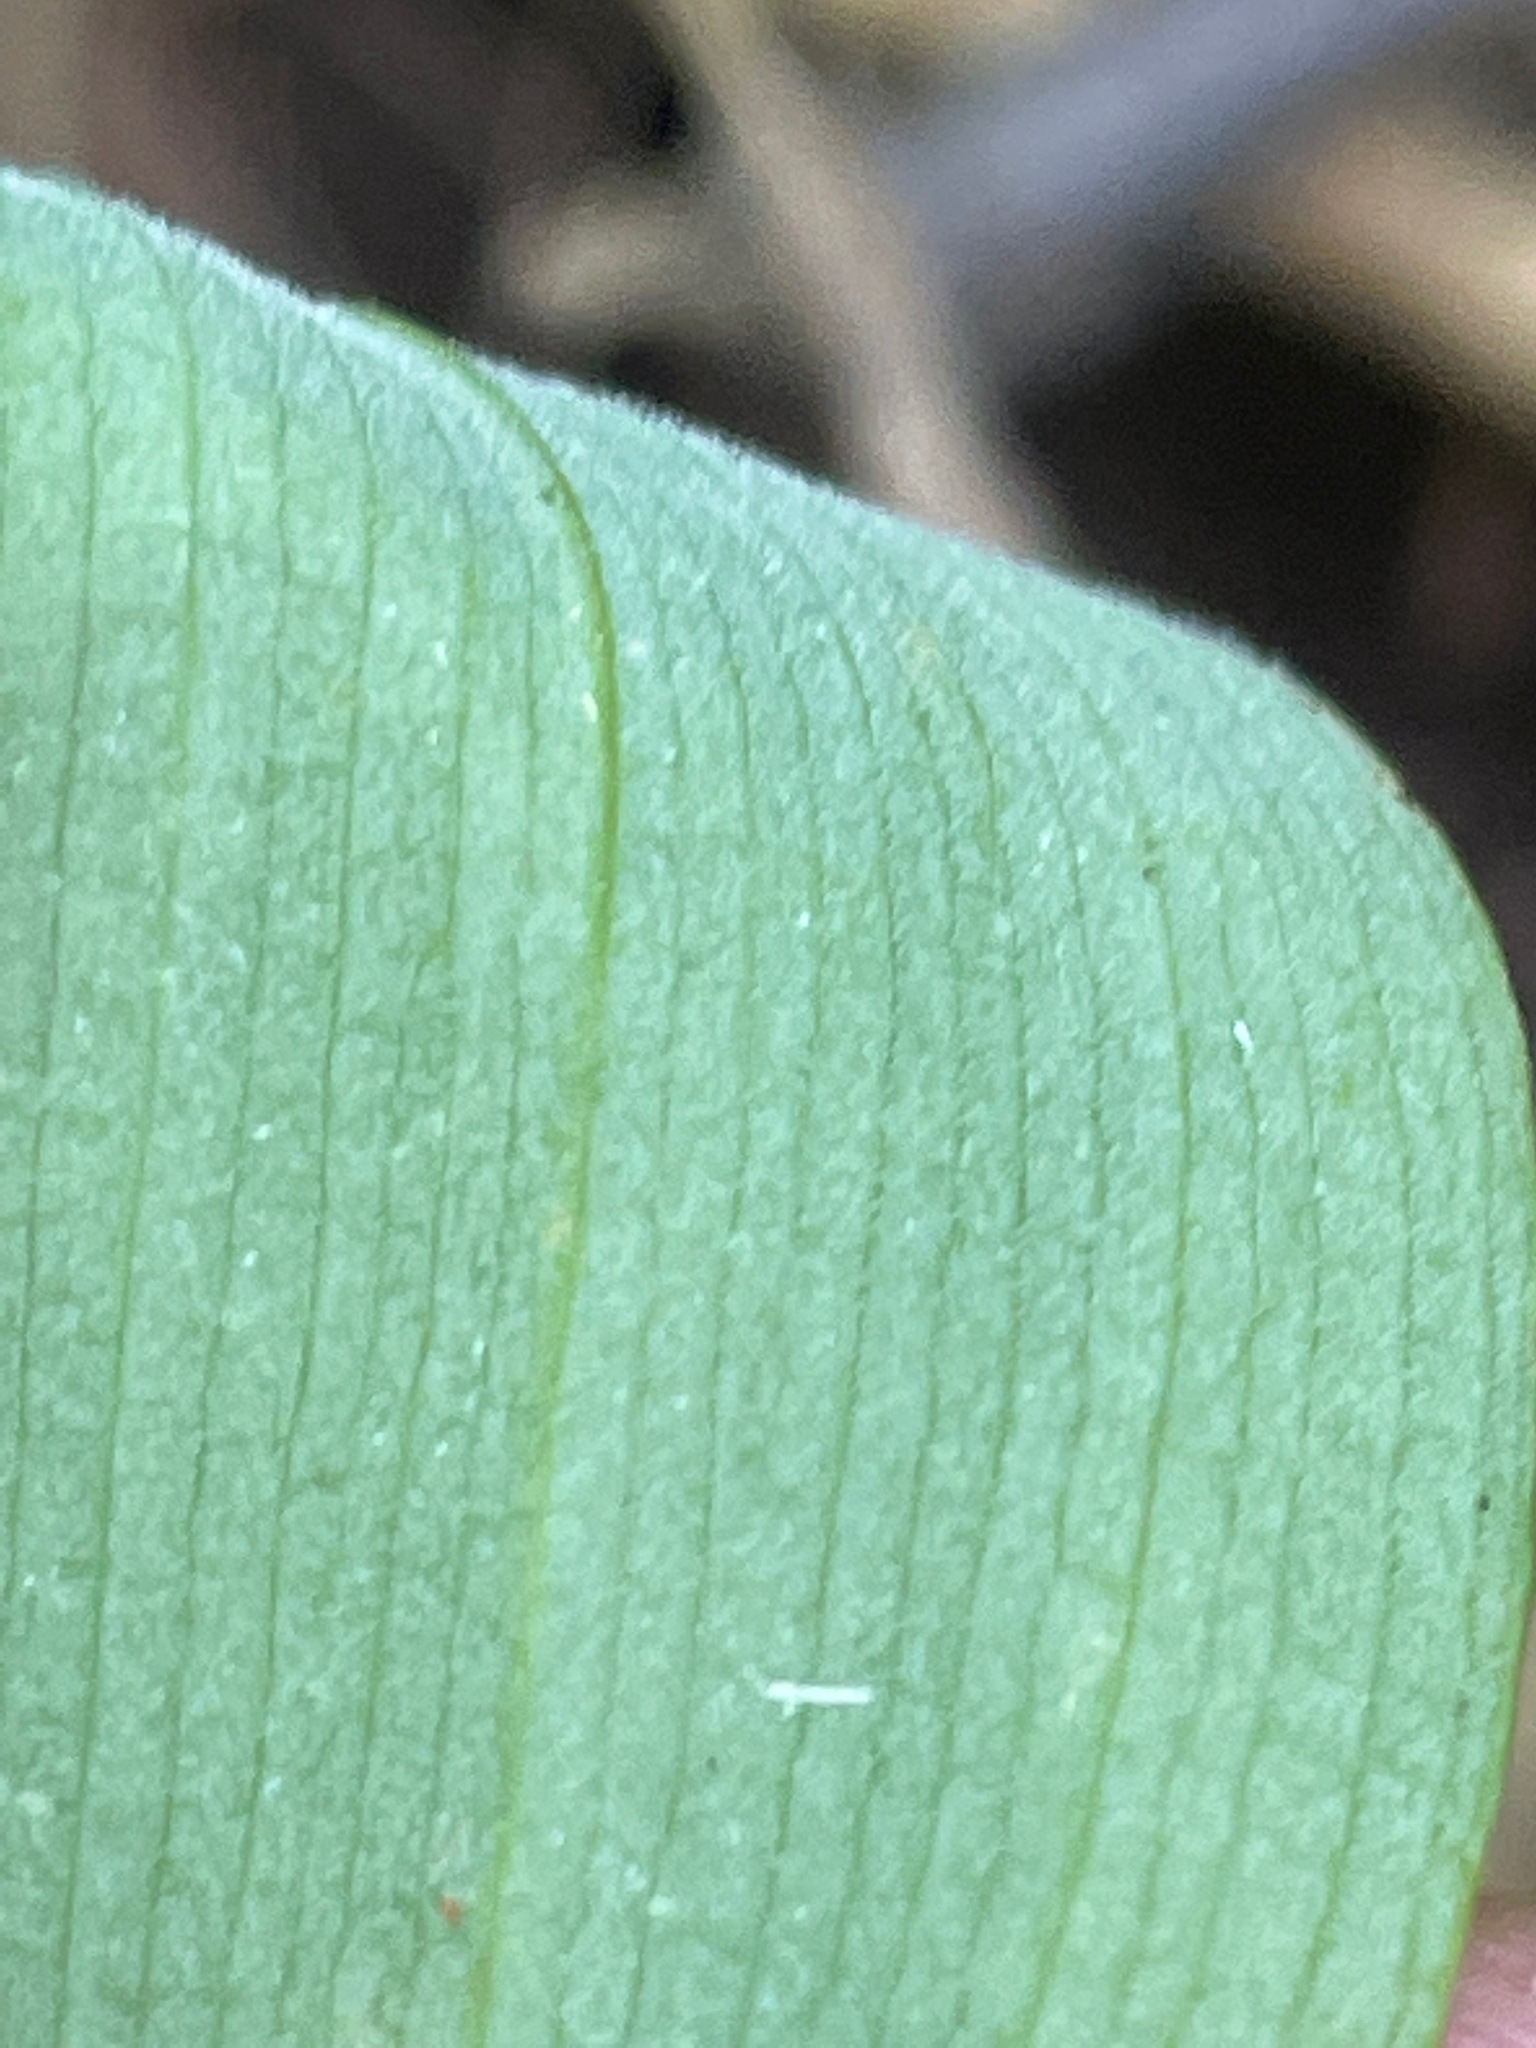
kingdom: Plantae
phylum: Tracheophyta
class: Liliopsida
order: Liliales
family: Colchicaceae
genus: Uvularia
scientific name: Uvularia grandiflora
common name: Bellwort
